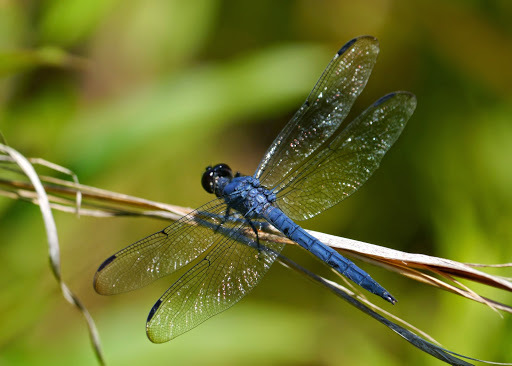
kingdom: Animalia
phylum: Arthropoda
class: Insecta
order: Odonata
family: Libellulidae
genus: Libellula
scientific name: Libellula incesta
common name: Slaty skimmer
